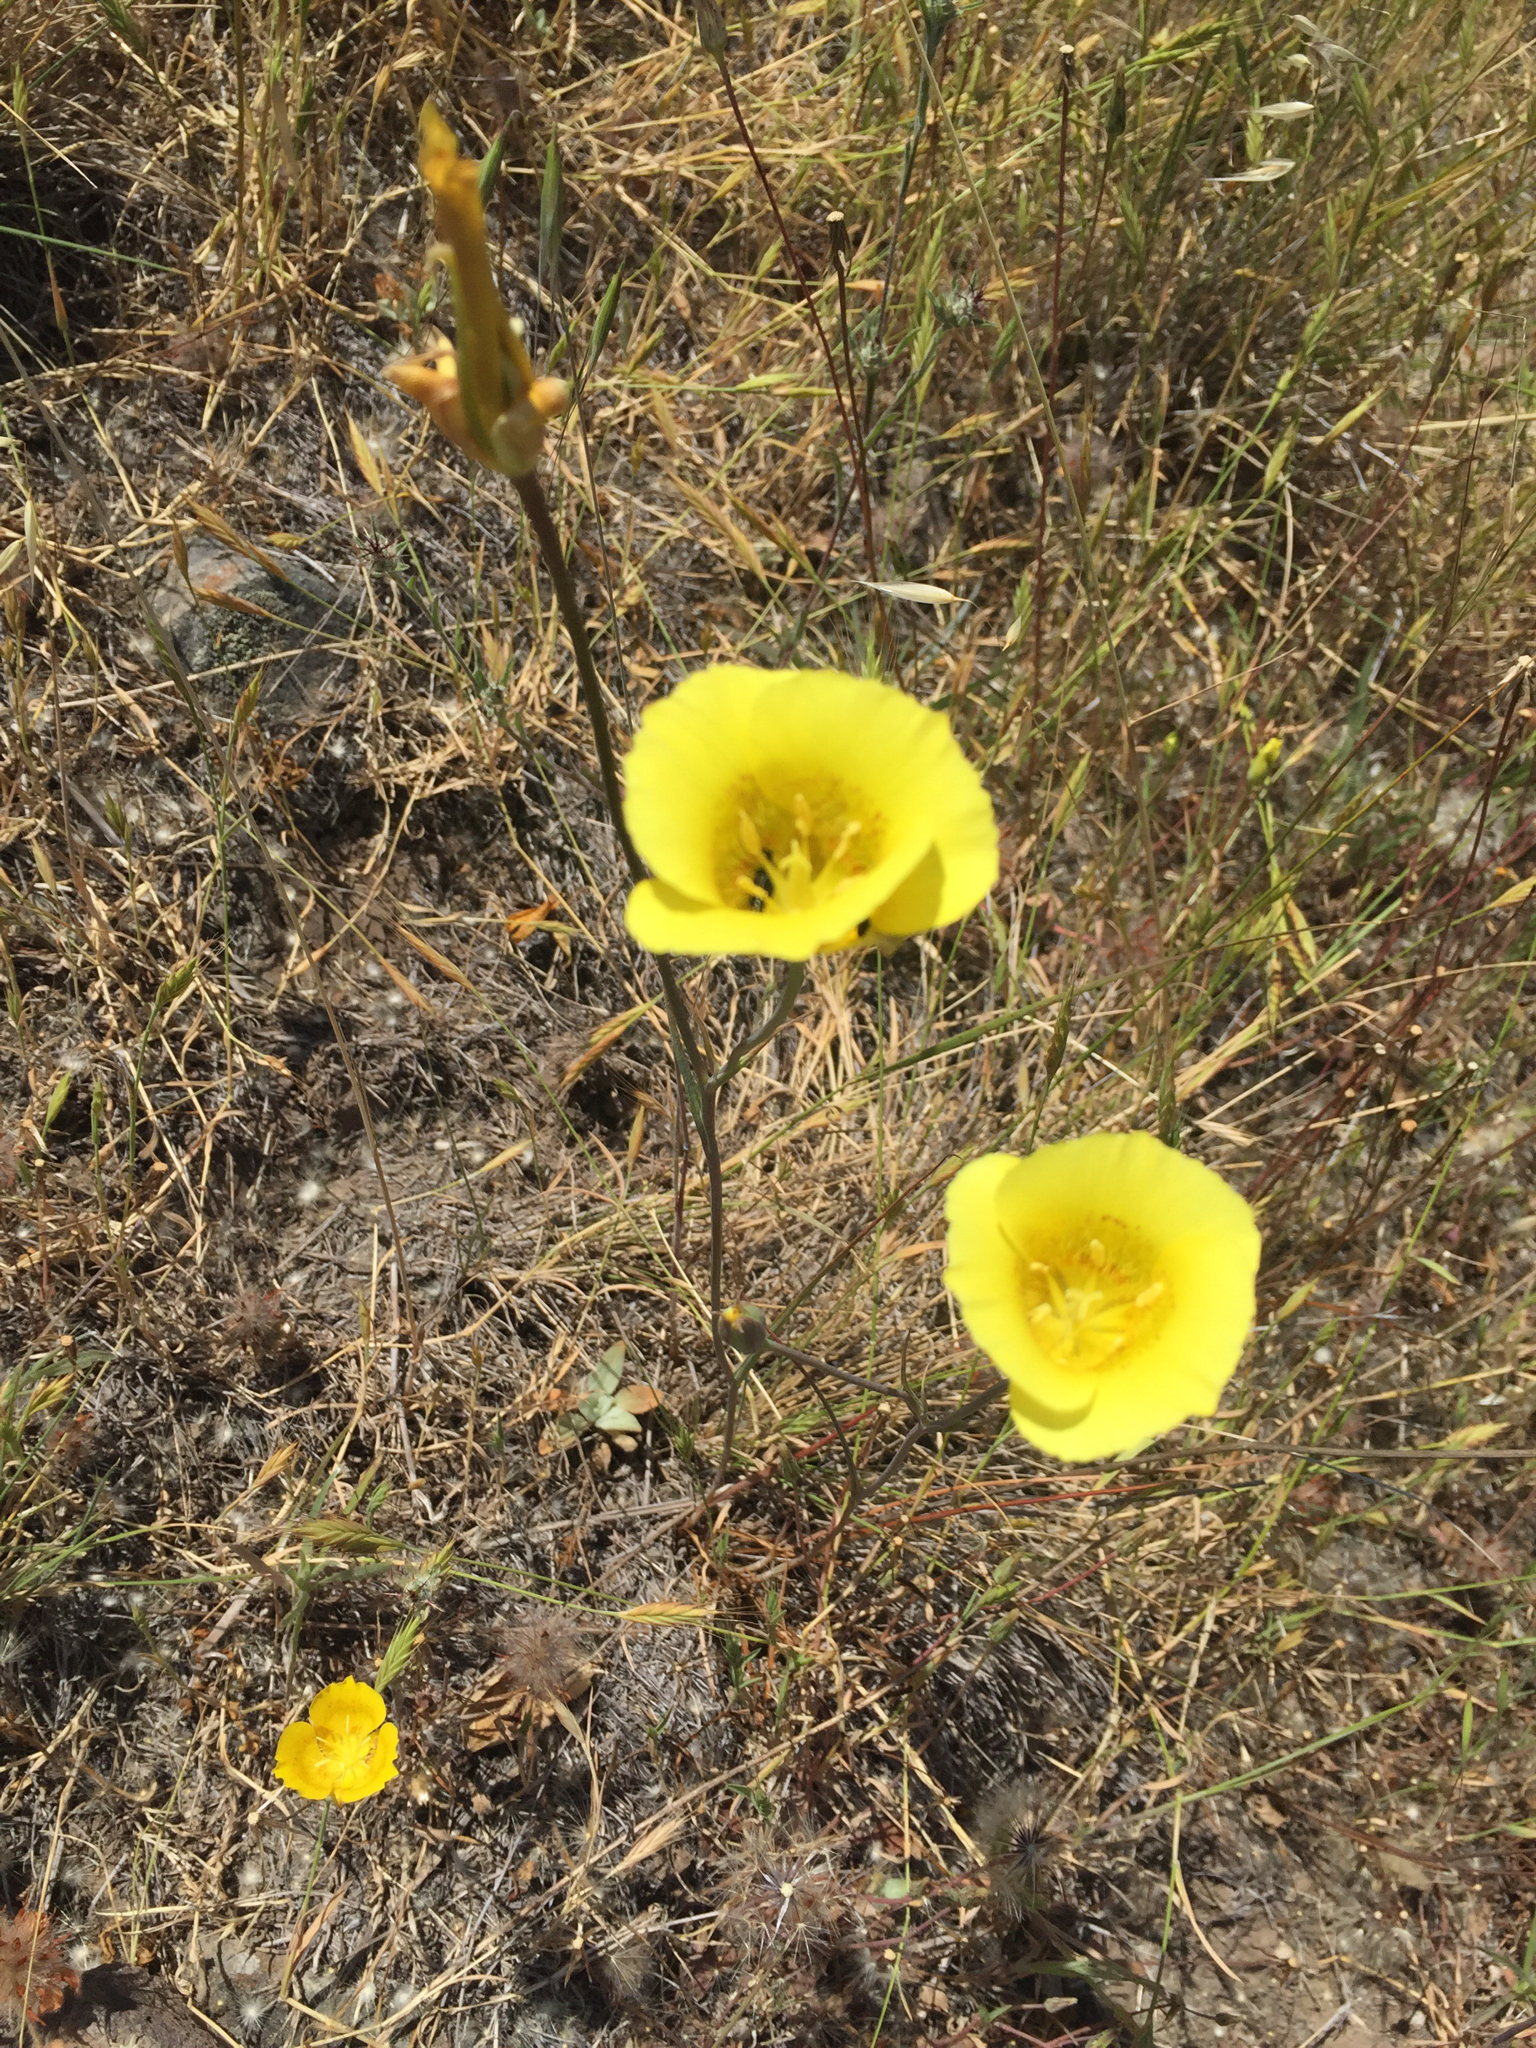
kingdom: Plantae
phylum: Tracheophyta
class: Liliopsida
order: Liliales
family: Liliaceae
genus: Calochortus
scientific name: Calochortus luteus
